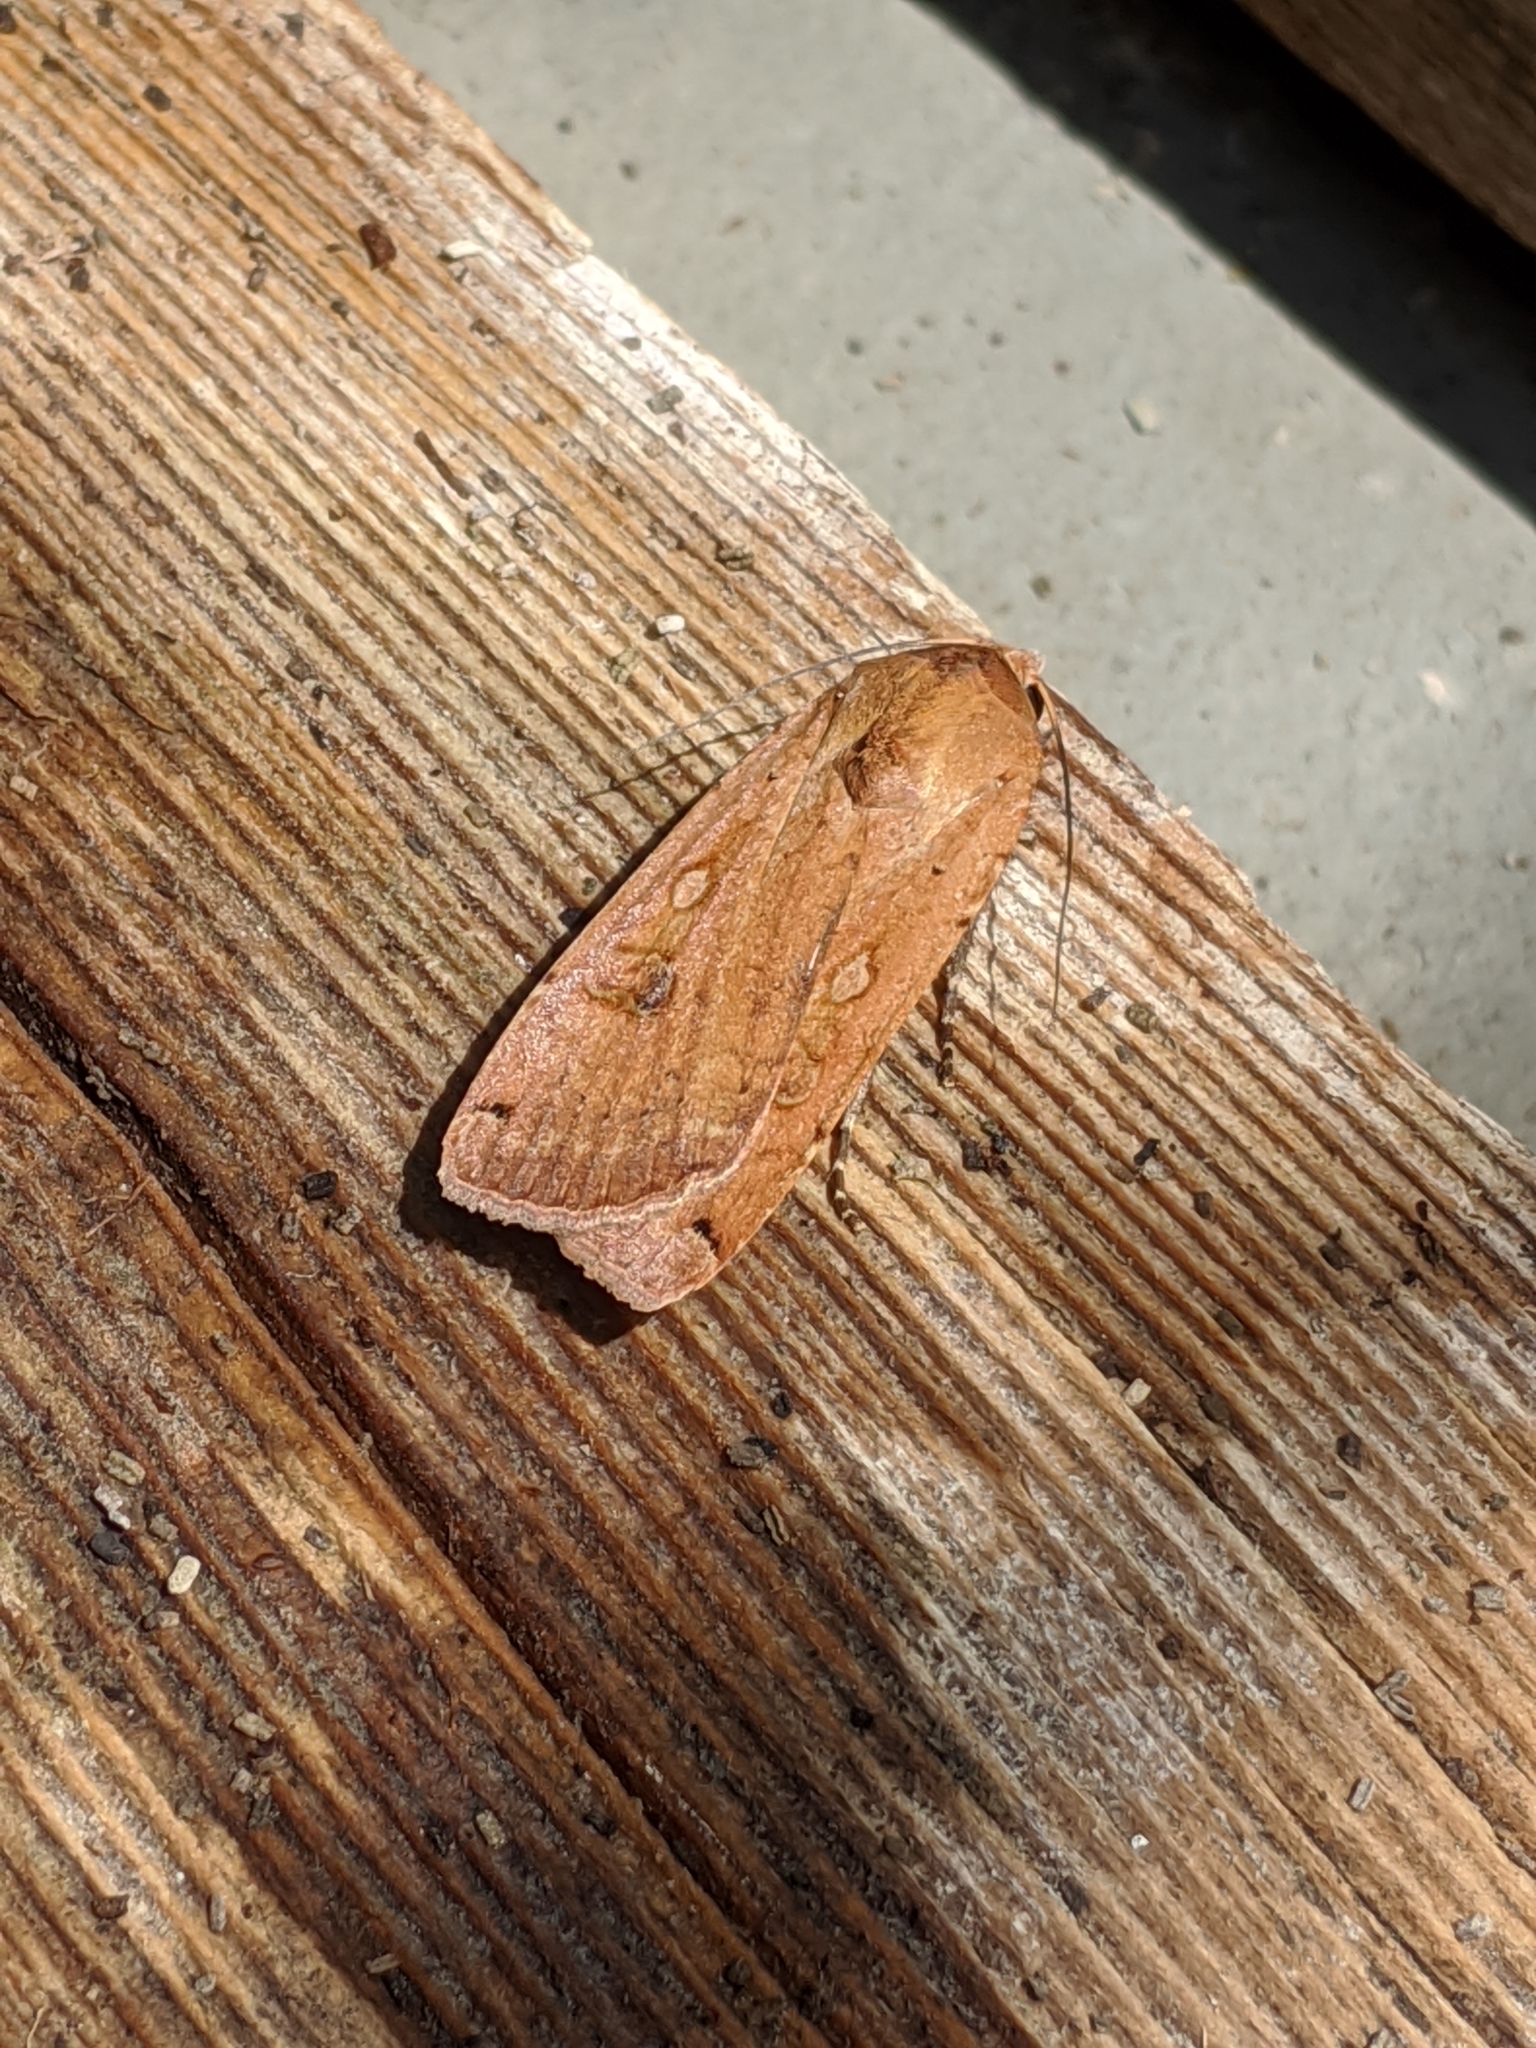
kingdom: Animalia
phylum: Arthropoda
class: Insecta
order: Lepidoptera
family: Noctuidae
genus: Noctua
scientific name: Noctua pronuba
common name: Large yellow underwing
